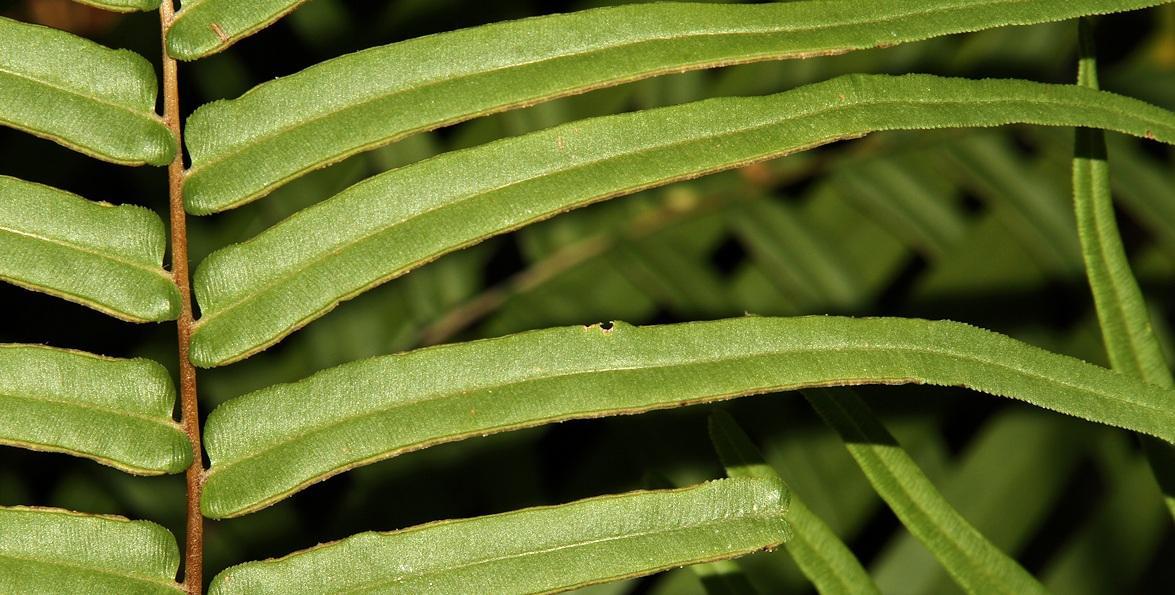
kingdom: Plantae
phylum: Tracheophyta
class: Polypodiopsida
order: Polypodiales
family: Pteridaceae
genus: Pteris
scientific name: Pteris vittata
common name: Ladder brake
